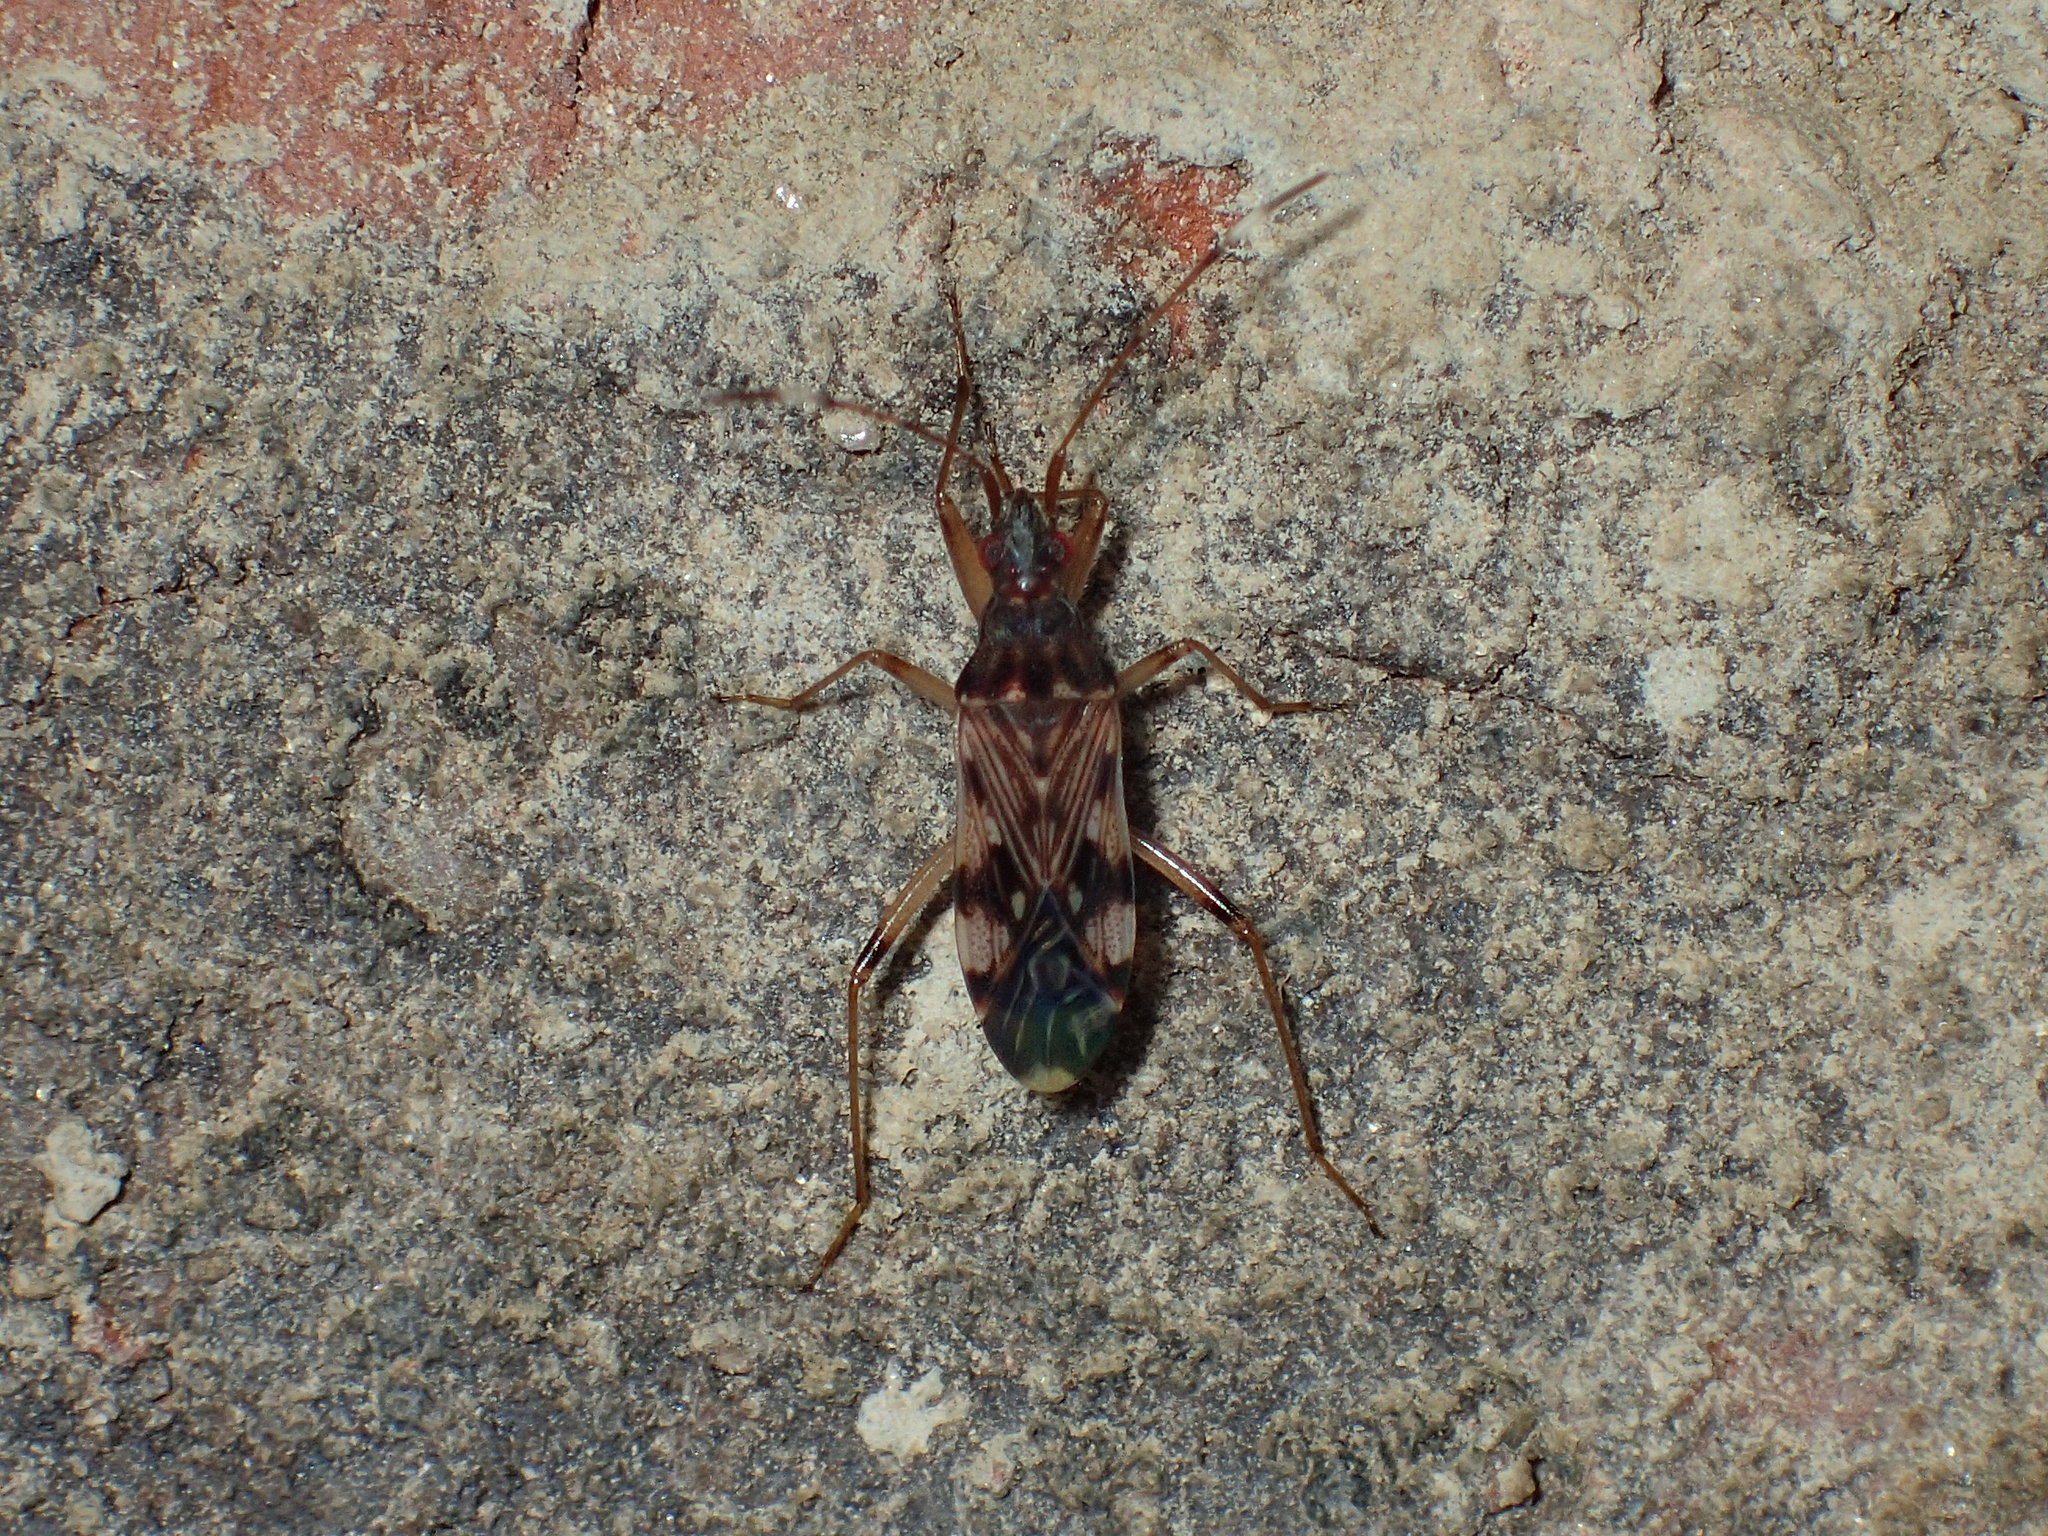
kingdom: Animalia
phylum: Arthropoda
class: Insecta
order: Hemiptera
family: Rhyparochromidae
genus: Ozophora
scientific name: Ozophora picturata
